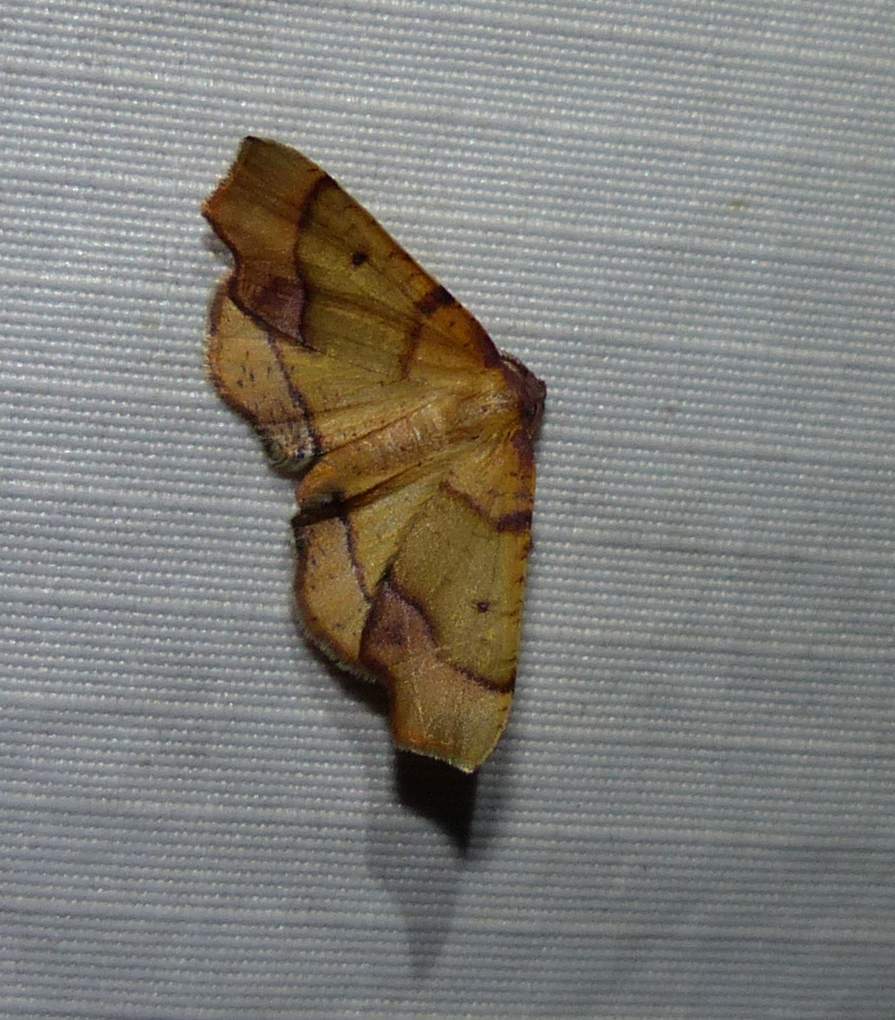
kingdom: Animalia
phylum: Arthropoda
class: Insecta
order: Lepidoptera
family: Geometridae
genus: Plagodis
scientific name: Plagodis phlogosaria
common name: Straight-lined plagodis
